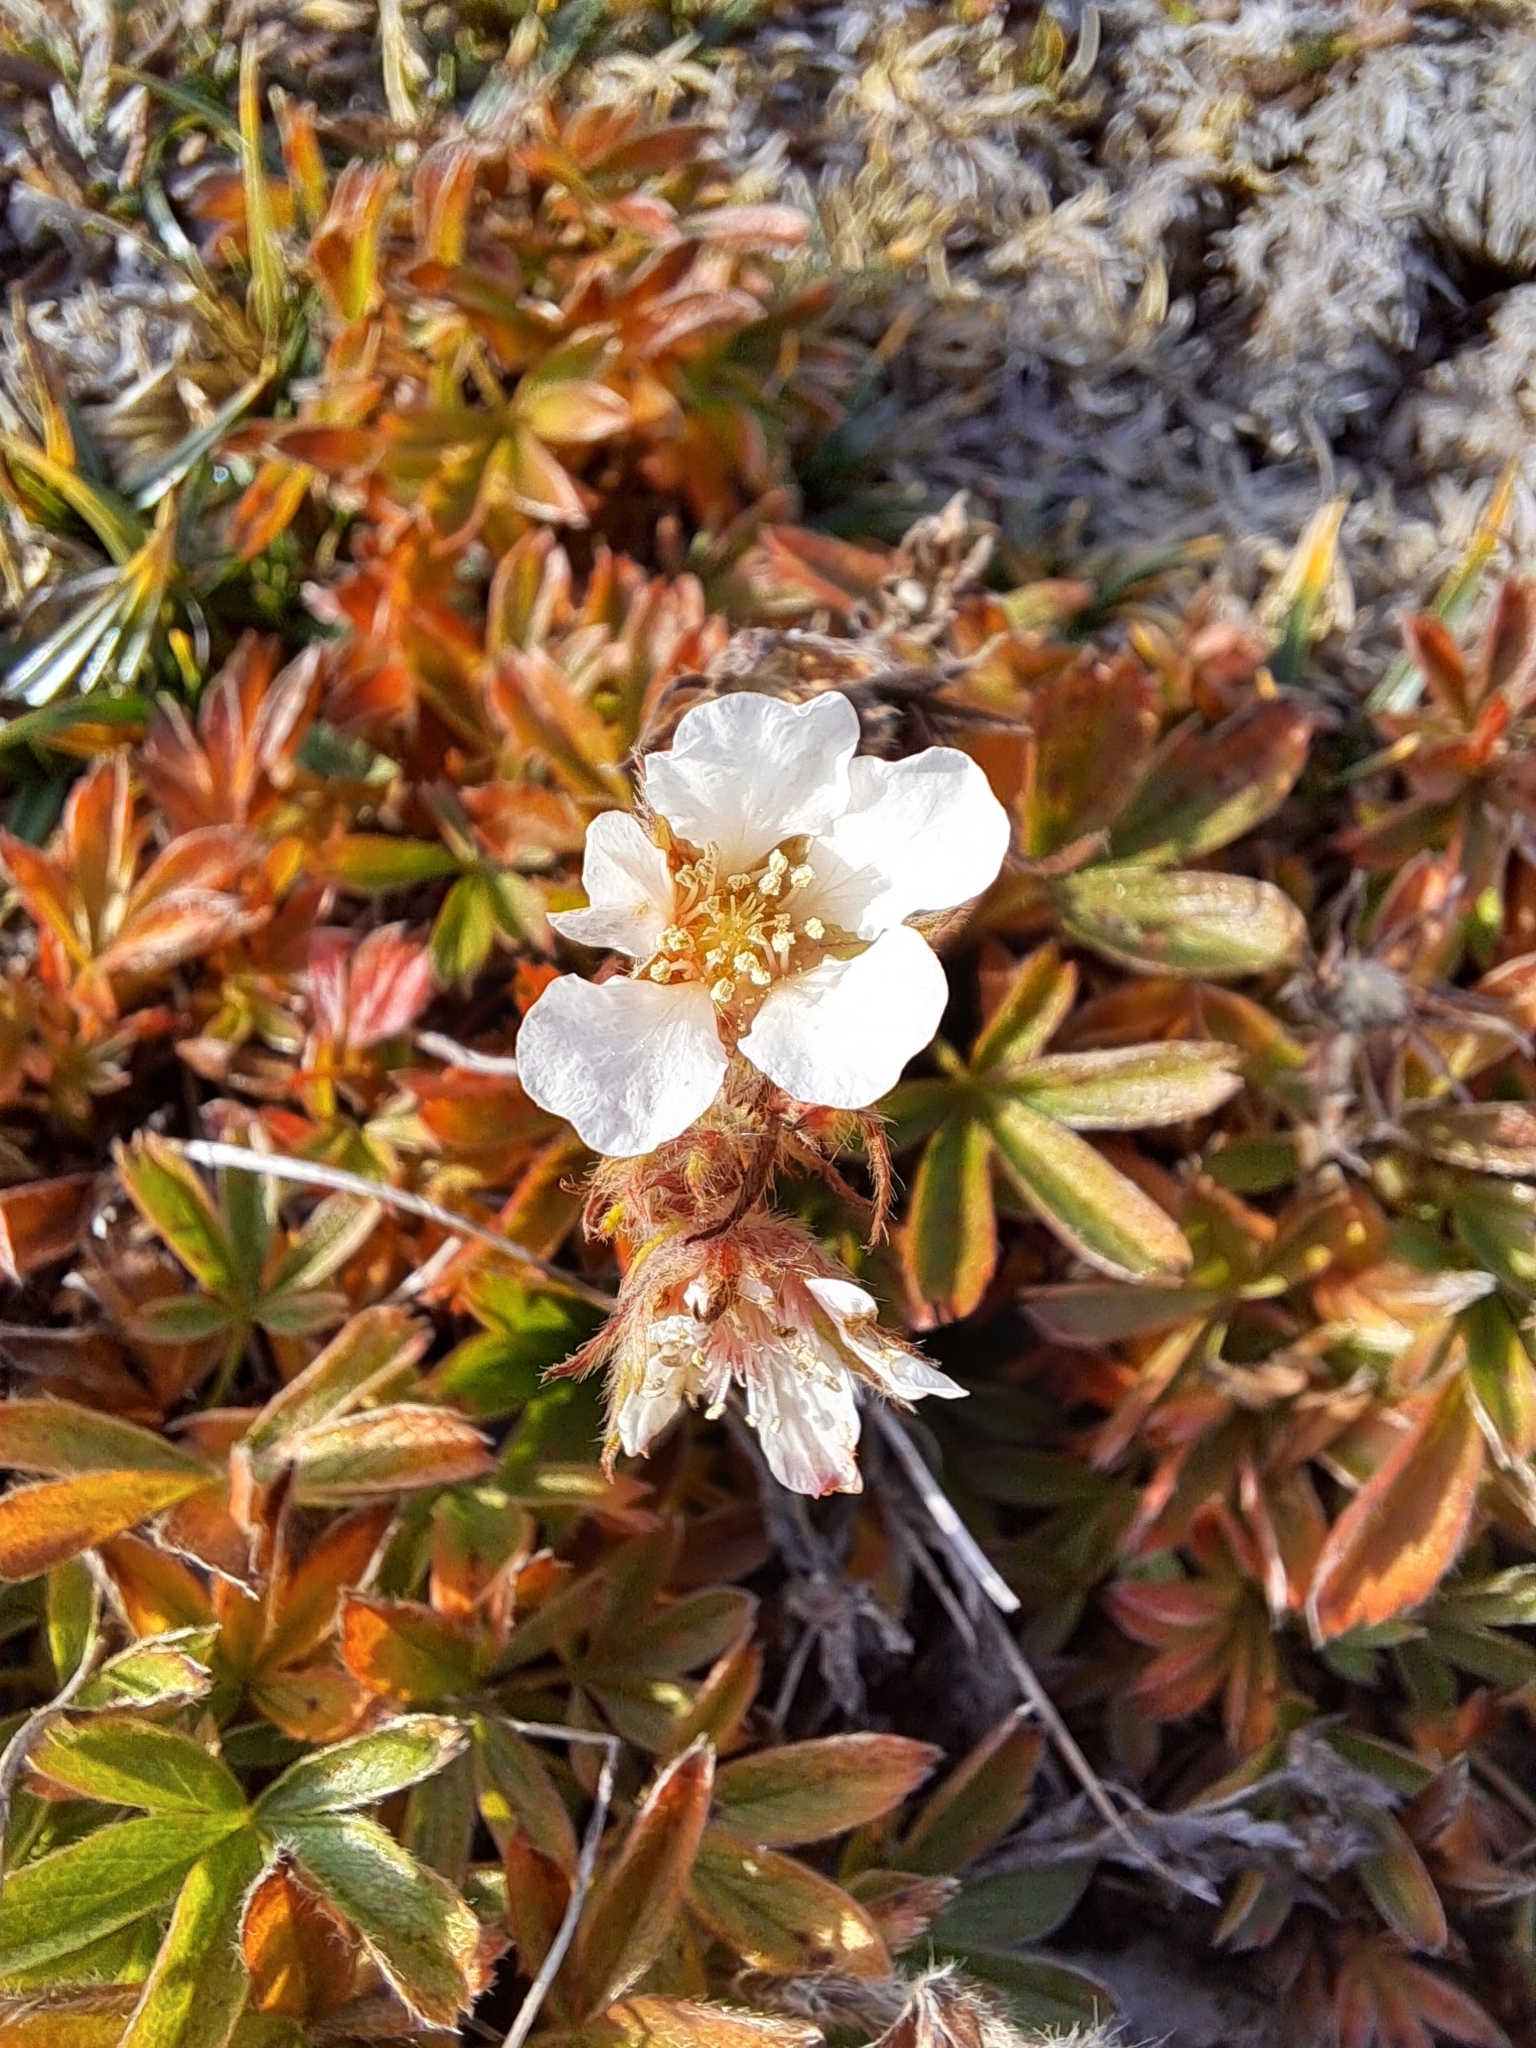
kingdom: Plantae
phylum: Tracheophyta
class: Magnoliopsida
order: Rosales
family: Rosaceae
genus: Potentilla
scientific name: Potentilla clusiana
